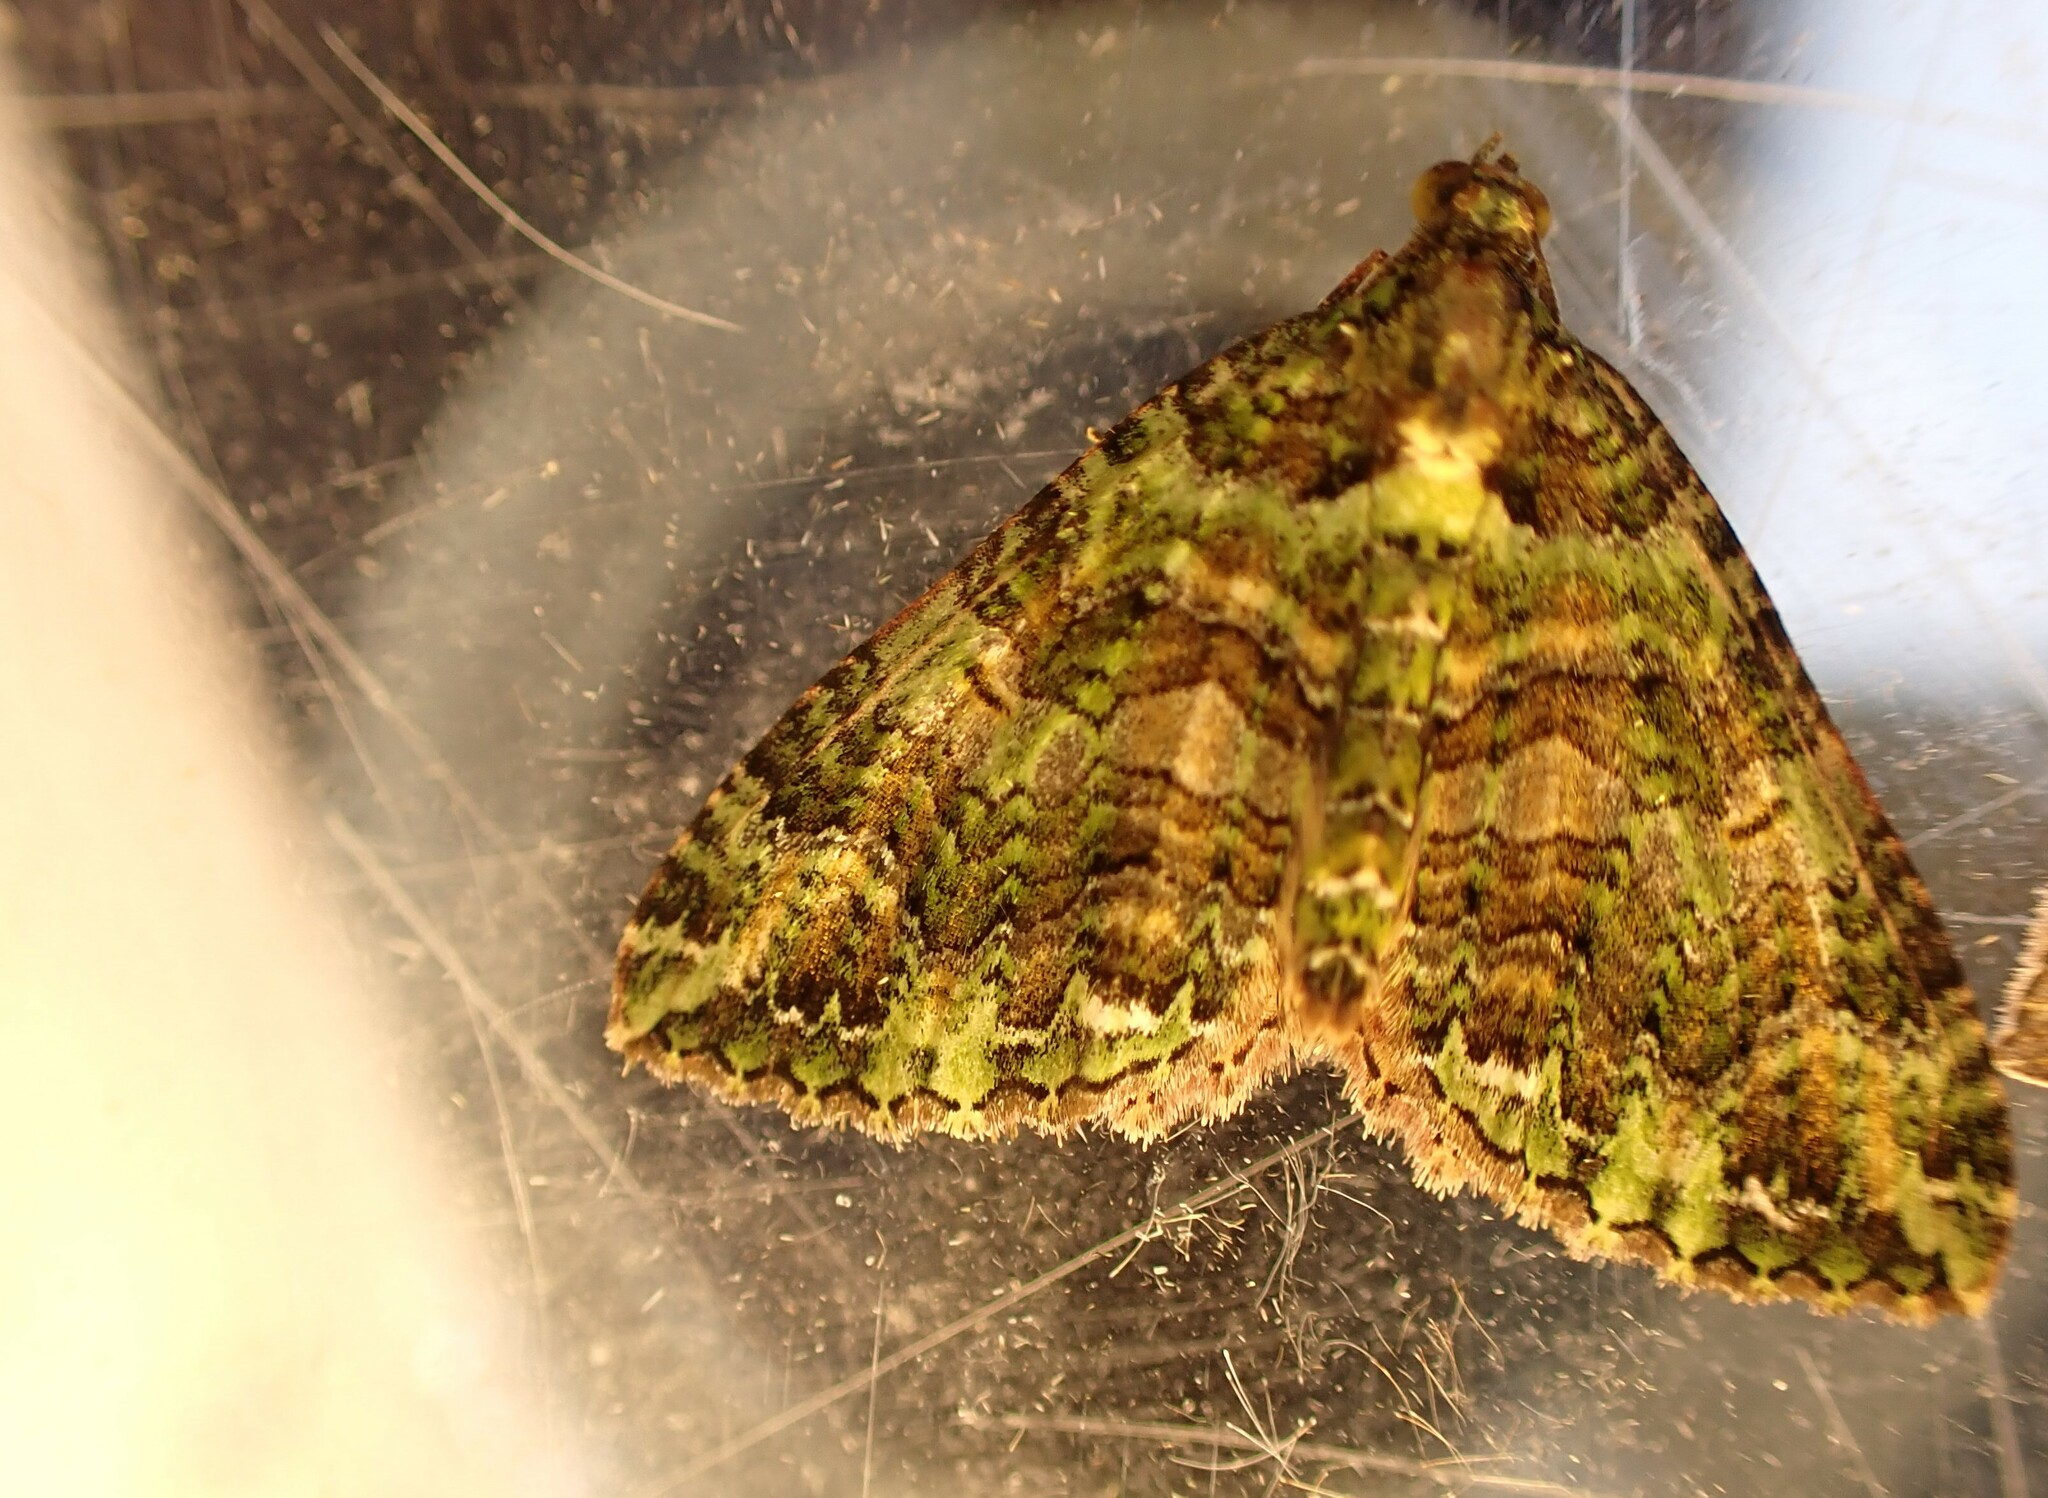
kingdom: Animalia
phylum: Arthropoda
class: Insecta
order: Lepidoptera
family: Geometridae
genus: Austrocidaria
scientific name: Austrocidaria similata
